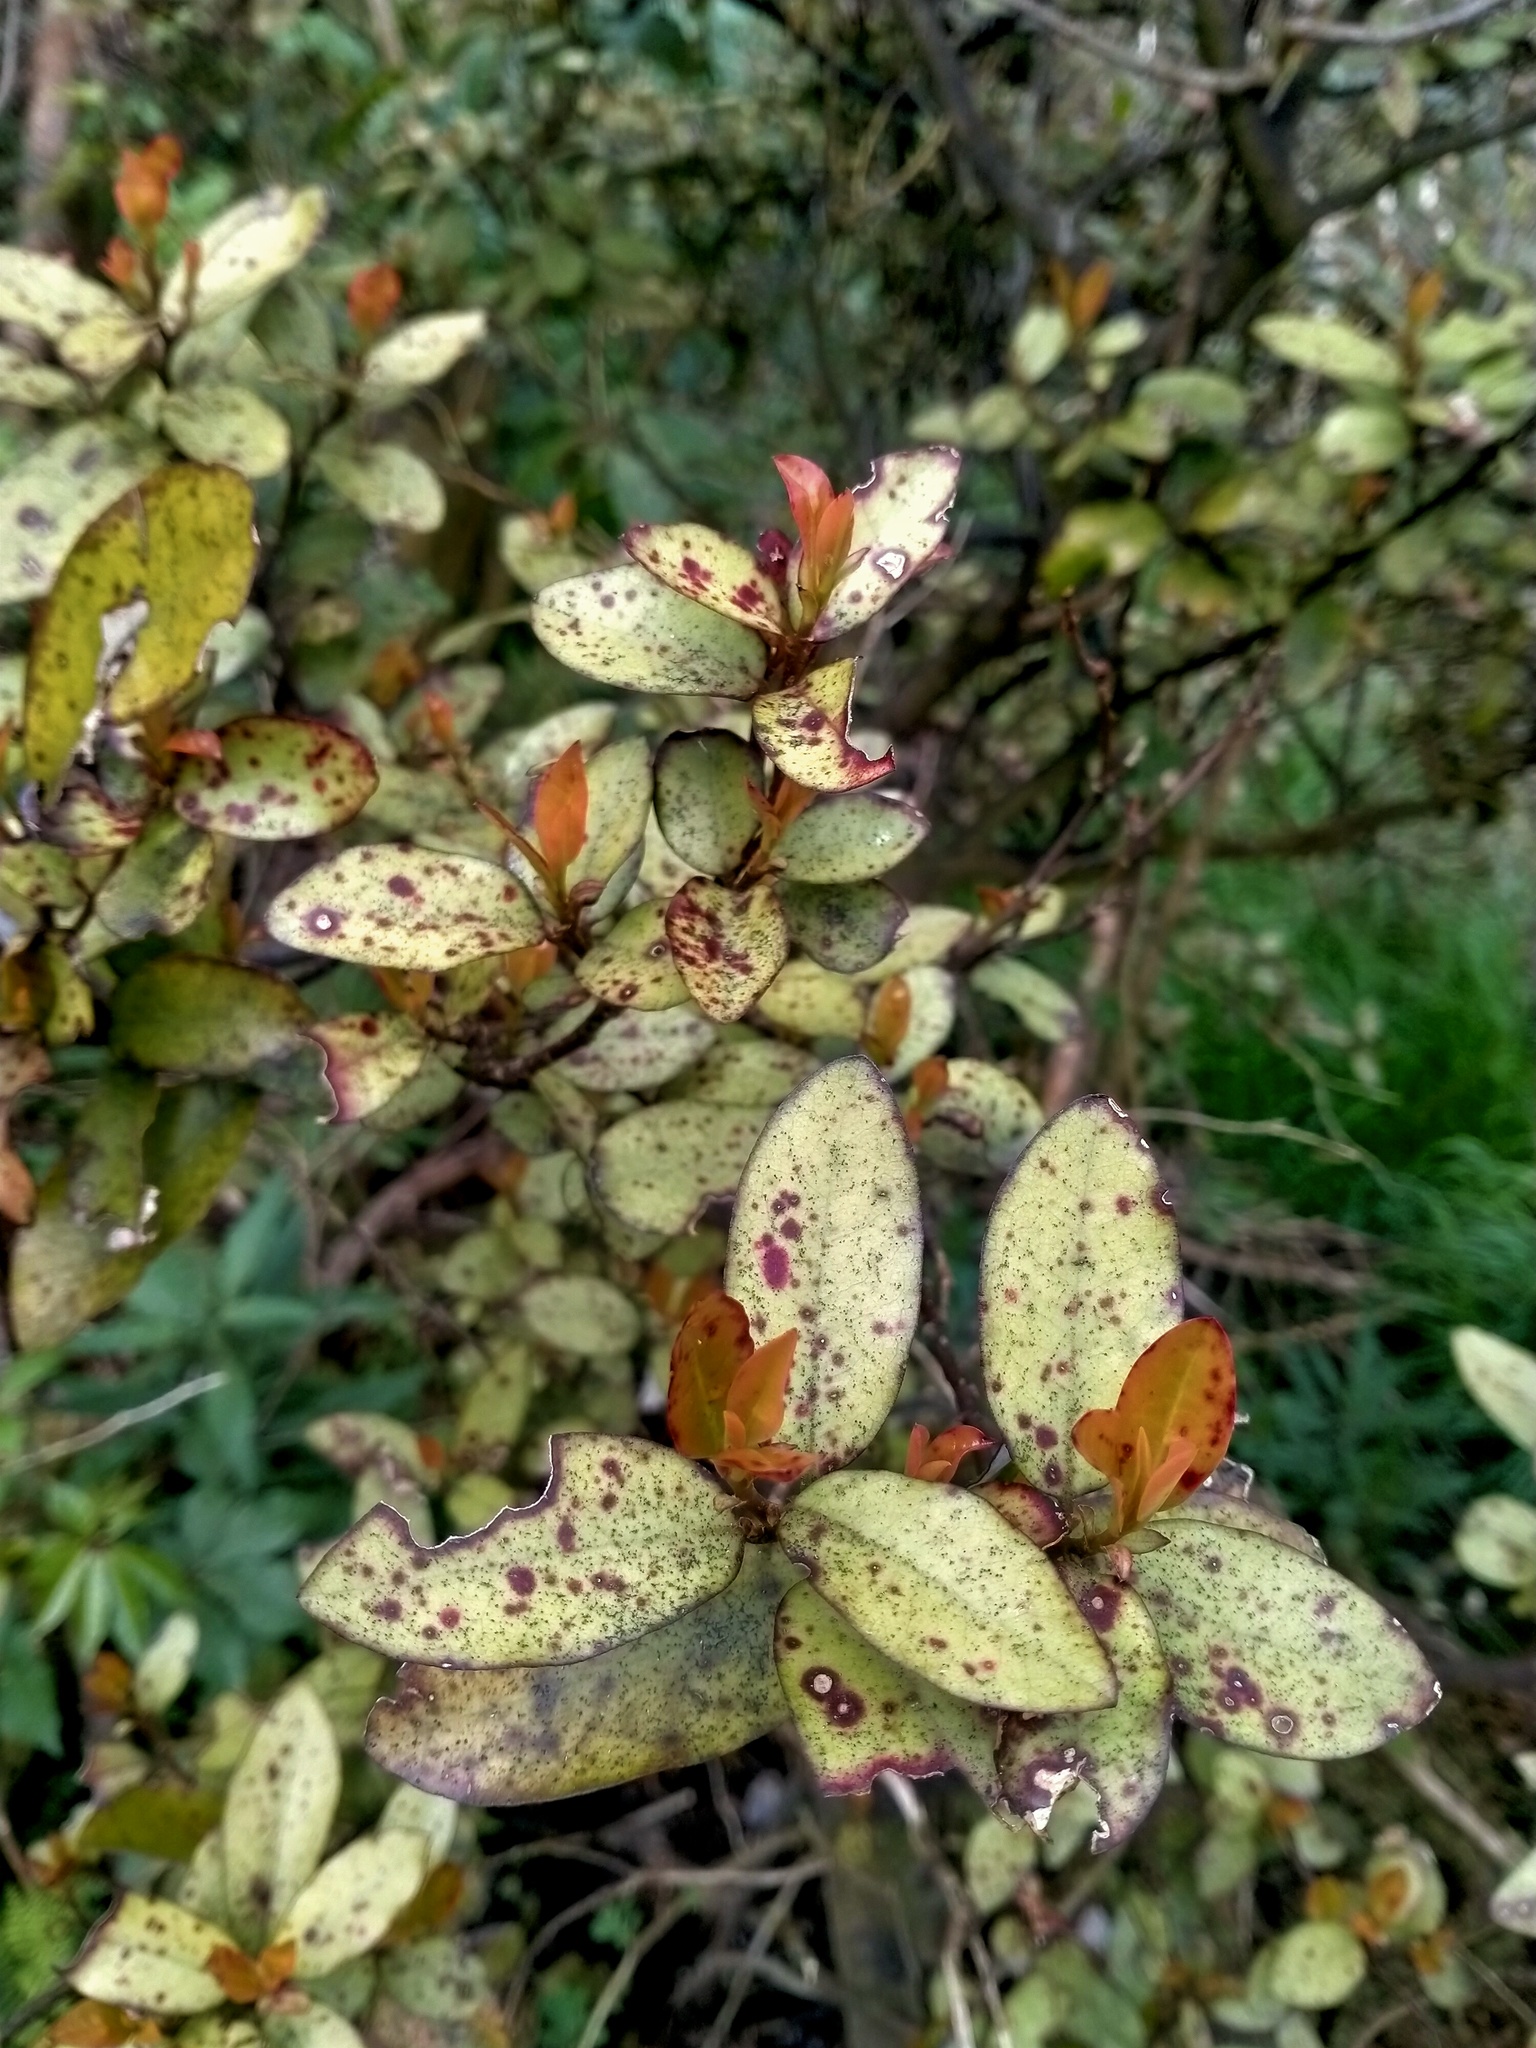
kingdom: Plantae
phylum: Tracheophyta
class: Magnoliopsida
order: Canellales
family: Winteraceae
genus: Pseudowintera
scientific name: Pseudowintera colorata
